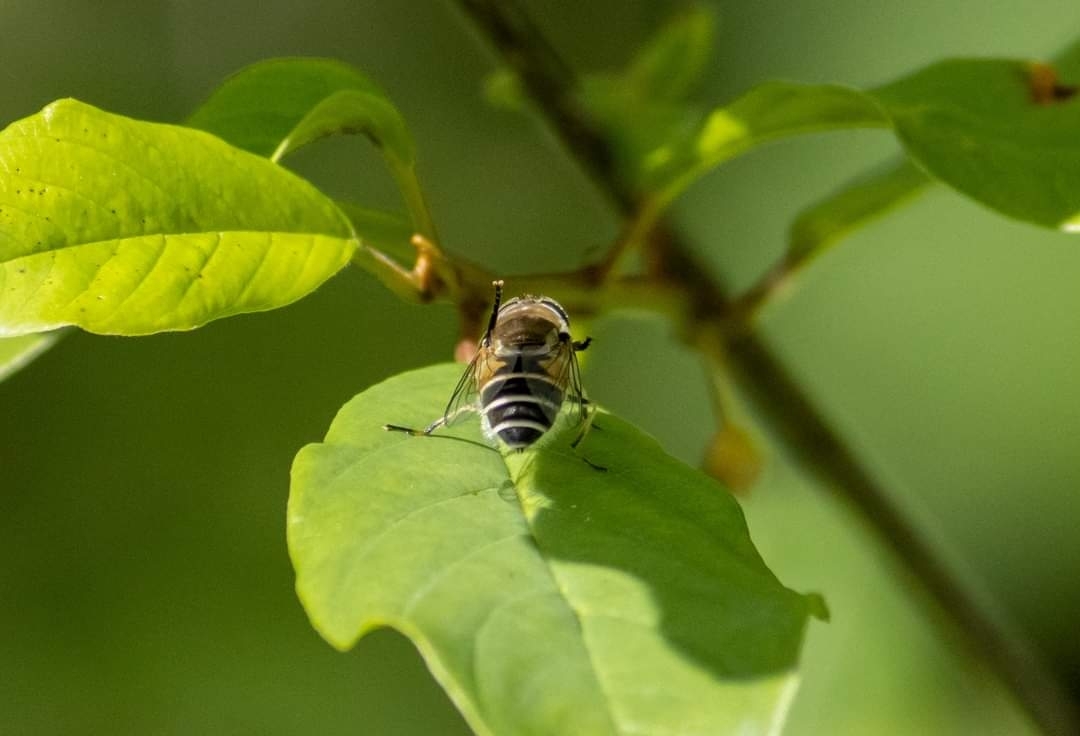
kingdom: Animalia
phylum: Arthropoda
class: Insecta
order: Diptera
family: Syrphidae
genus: Eristalis
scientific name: Eristalis arbustorum
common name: Hover fly
